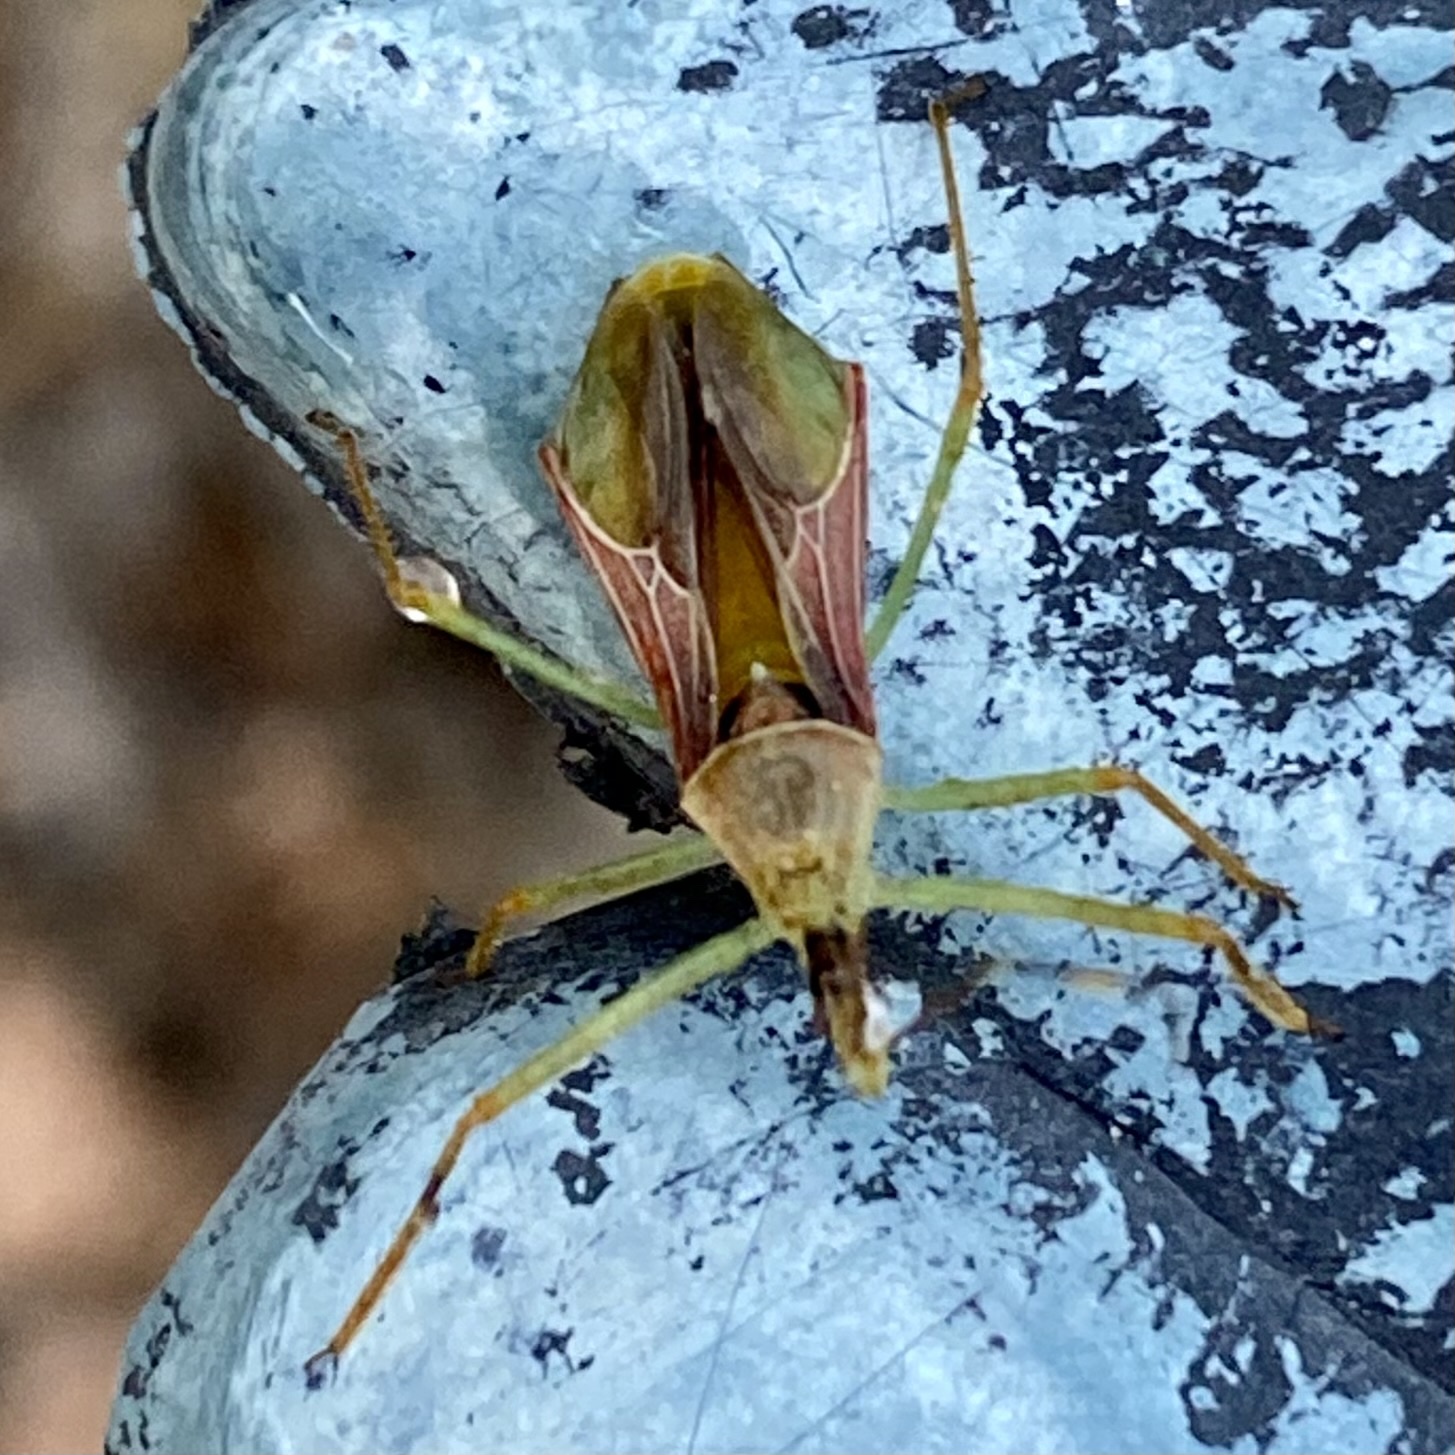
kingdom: Animalia
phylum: Arthropoda
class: Insecta
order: Hemiptera
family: Reduviidae
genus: Zelus
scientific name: Zelus renardii
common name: Assassin bug
